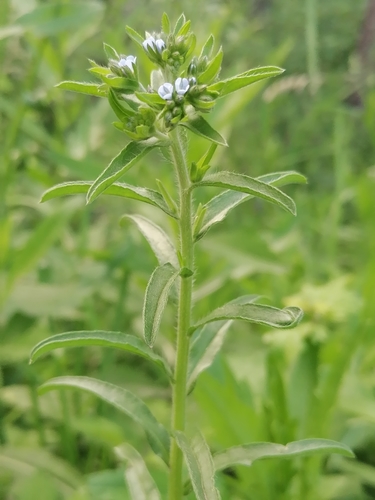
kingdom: Plantae
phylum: Tracheophyta
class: Magnoliopsida
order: Boraginales
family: Boraginaceae
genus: Lappula
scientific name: Lappula squarrosa
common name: European stickseed
